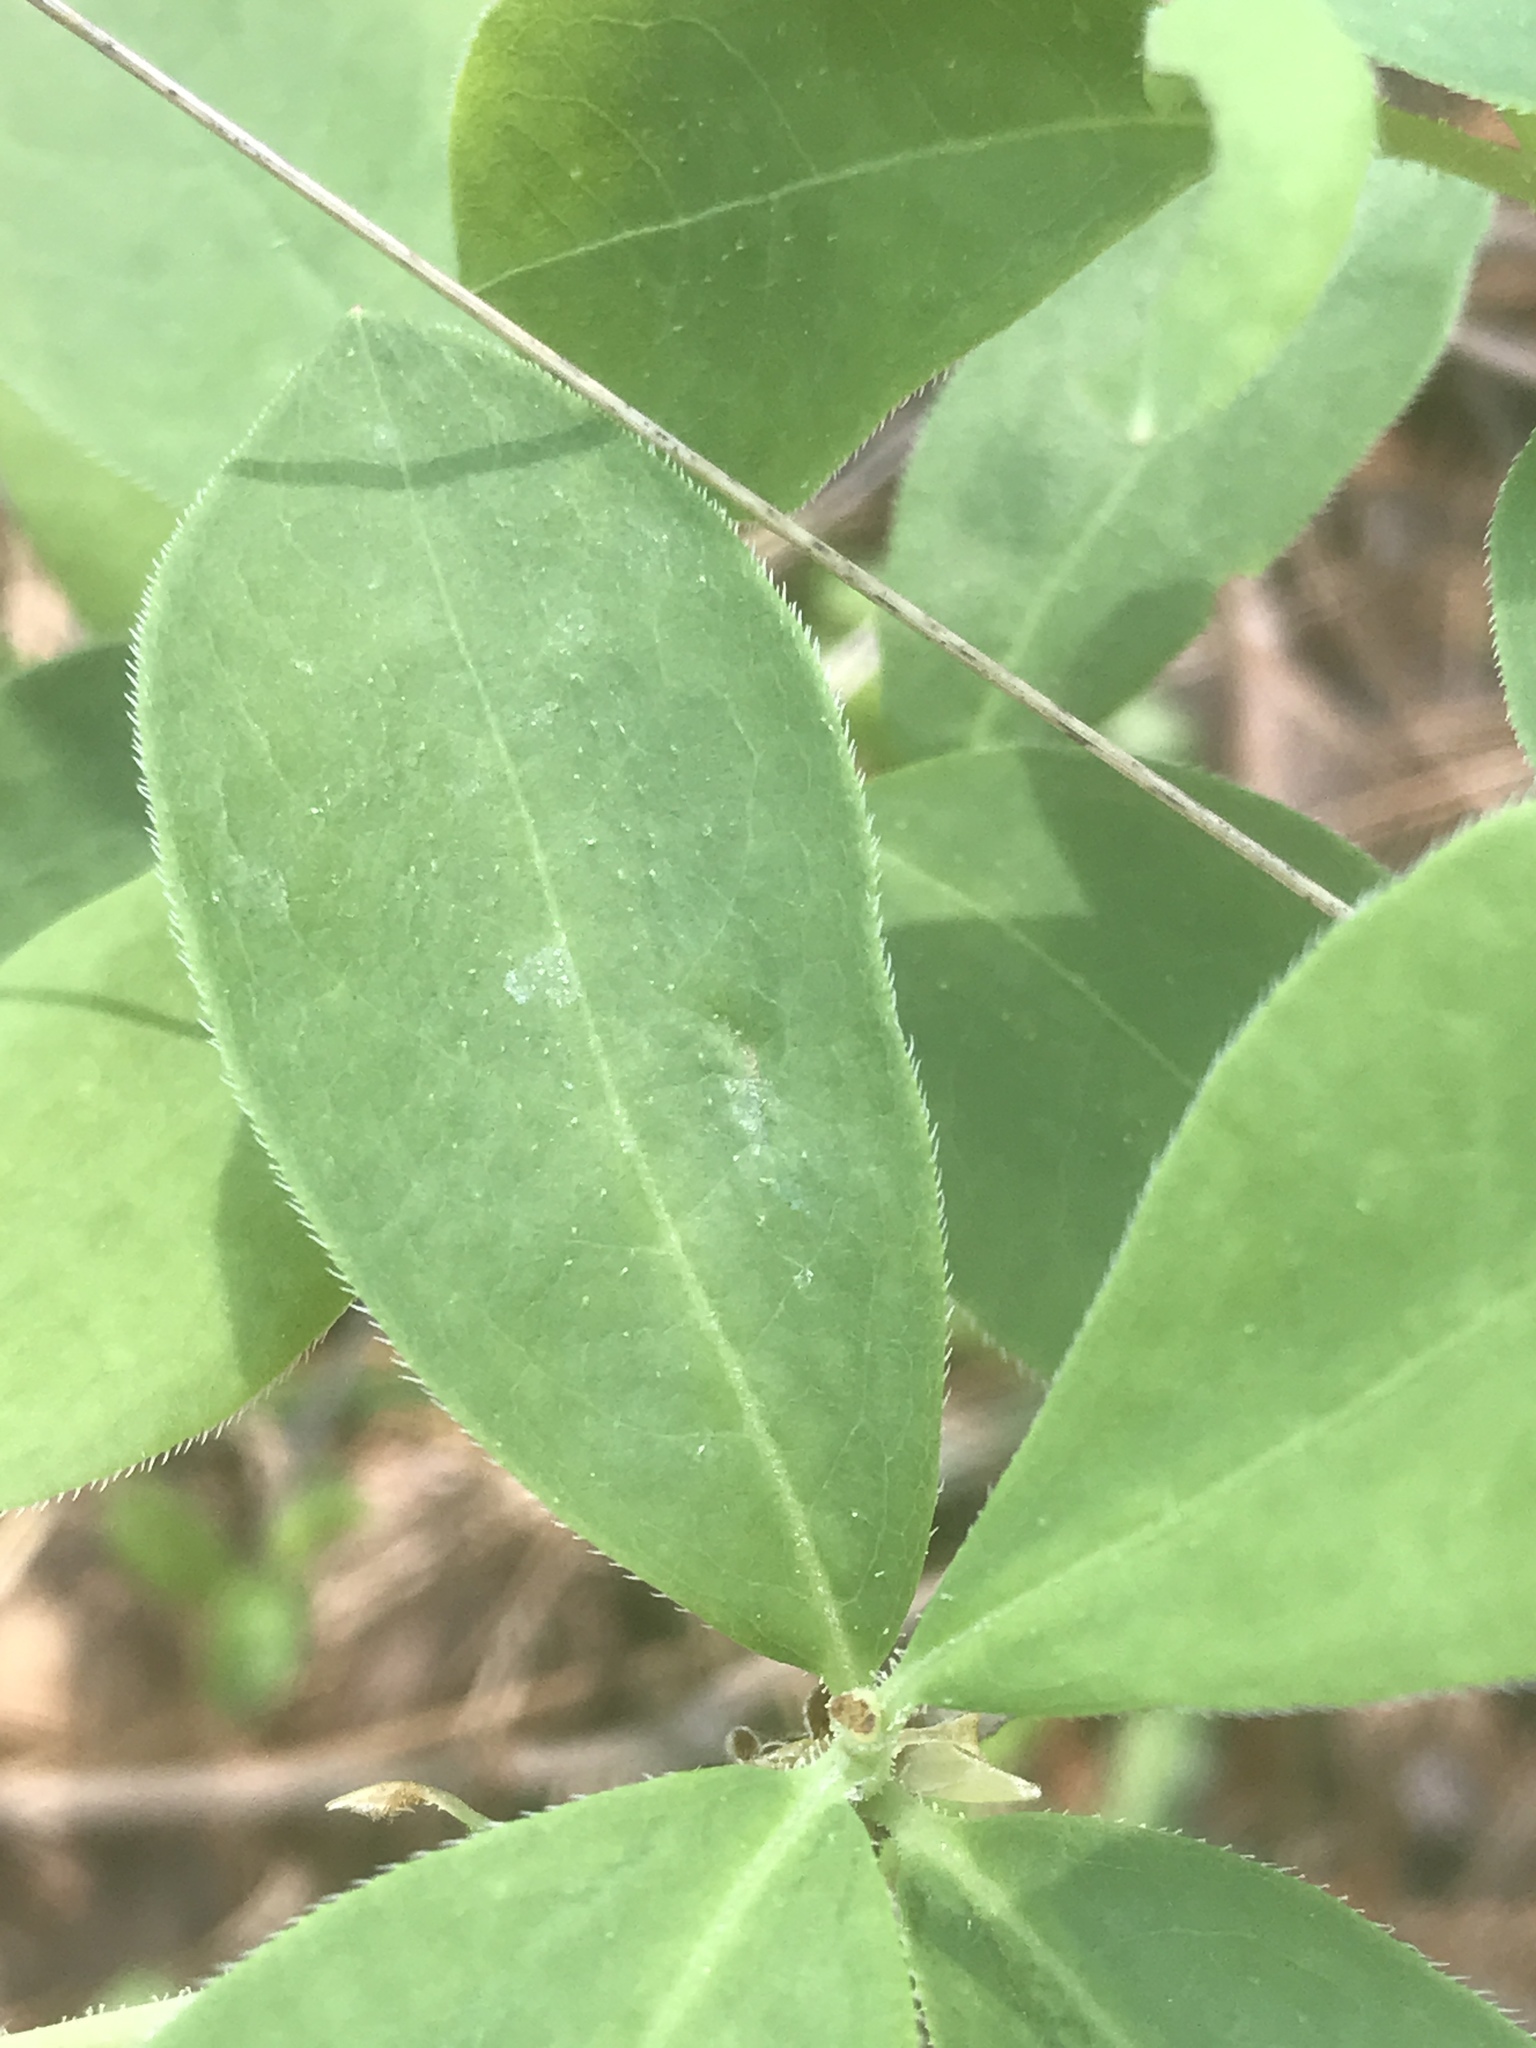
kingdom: Plantae
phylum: Tracheophyta
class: Magnoliopsida
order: Ericales
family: Ericaceae
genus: Rhododendron
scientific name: Rhododendron atlanticum
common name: Dwarf azalea
